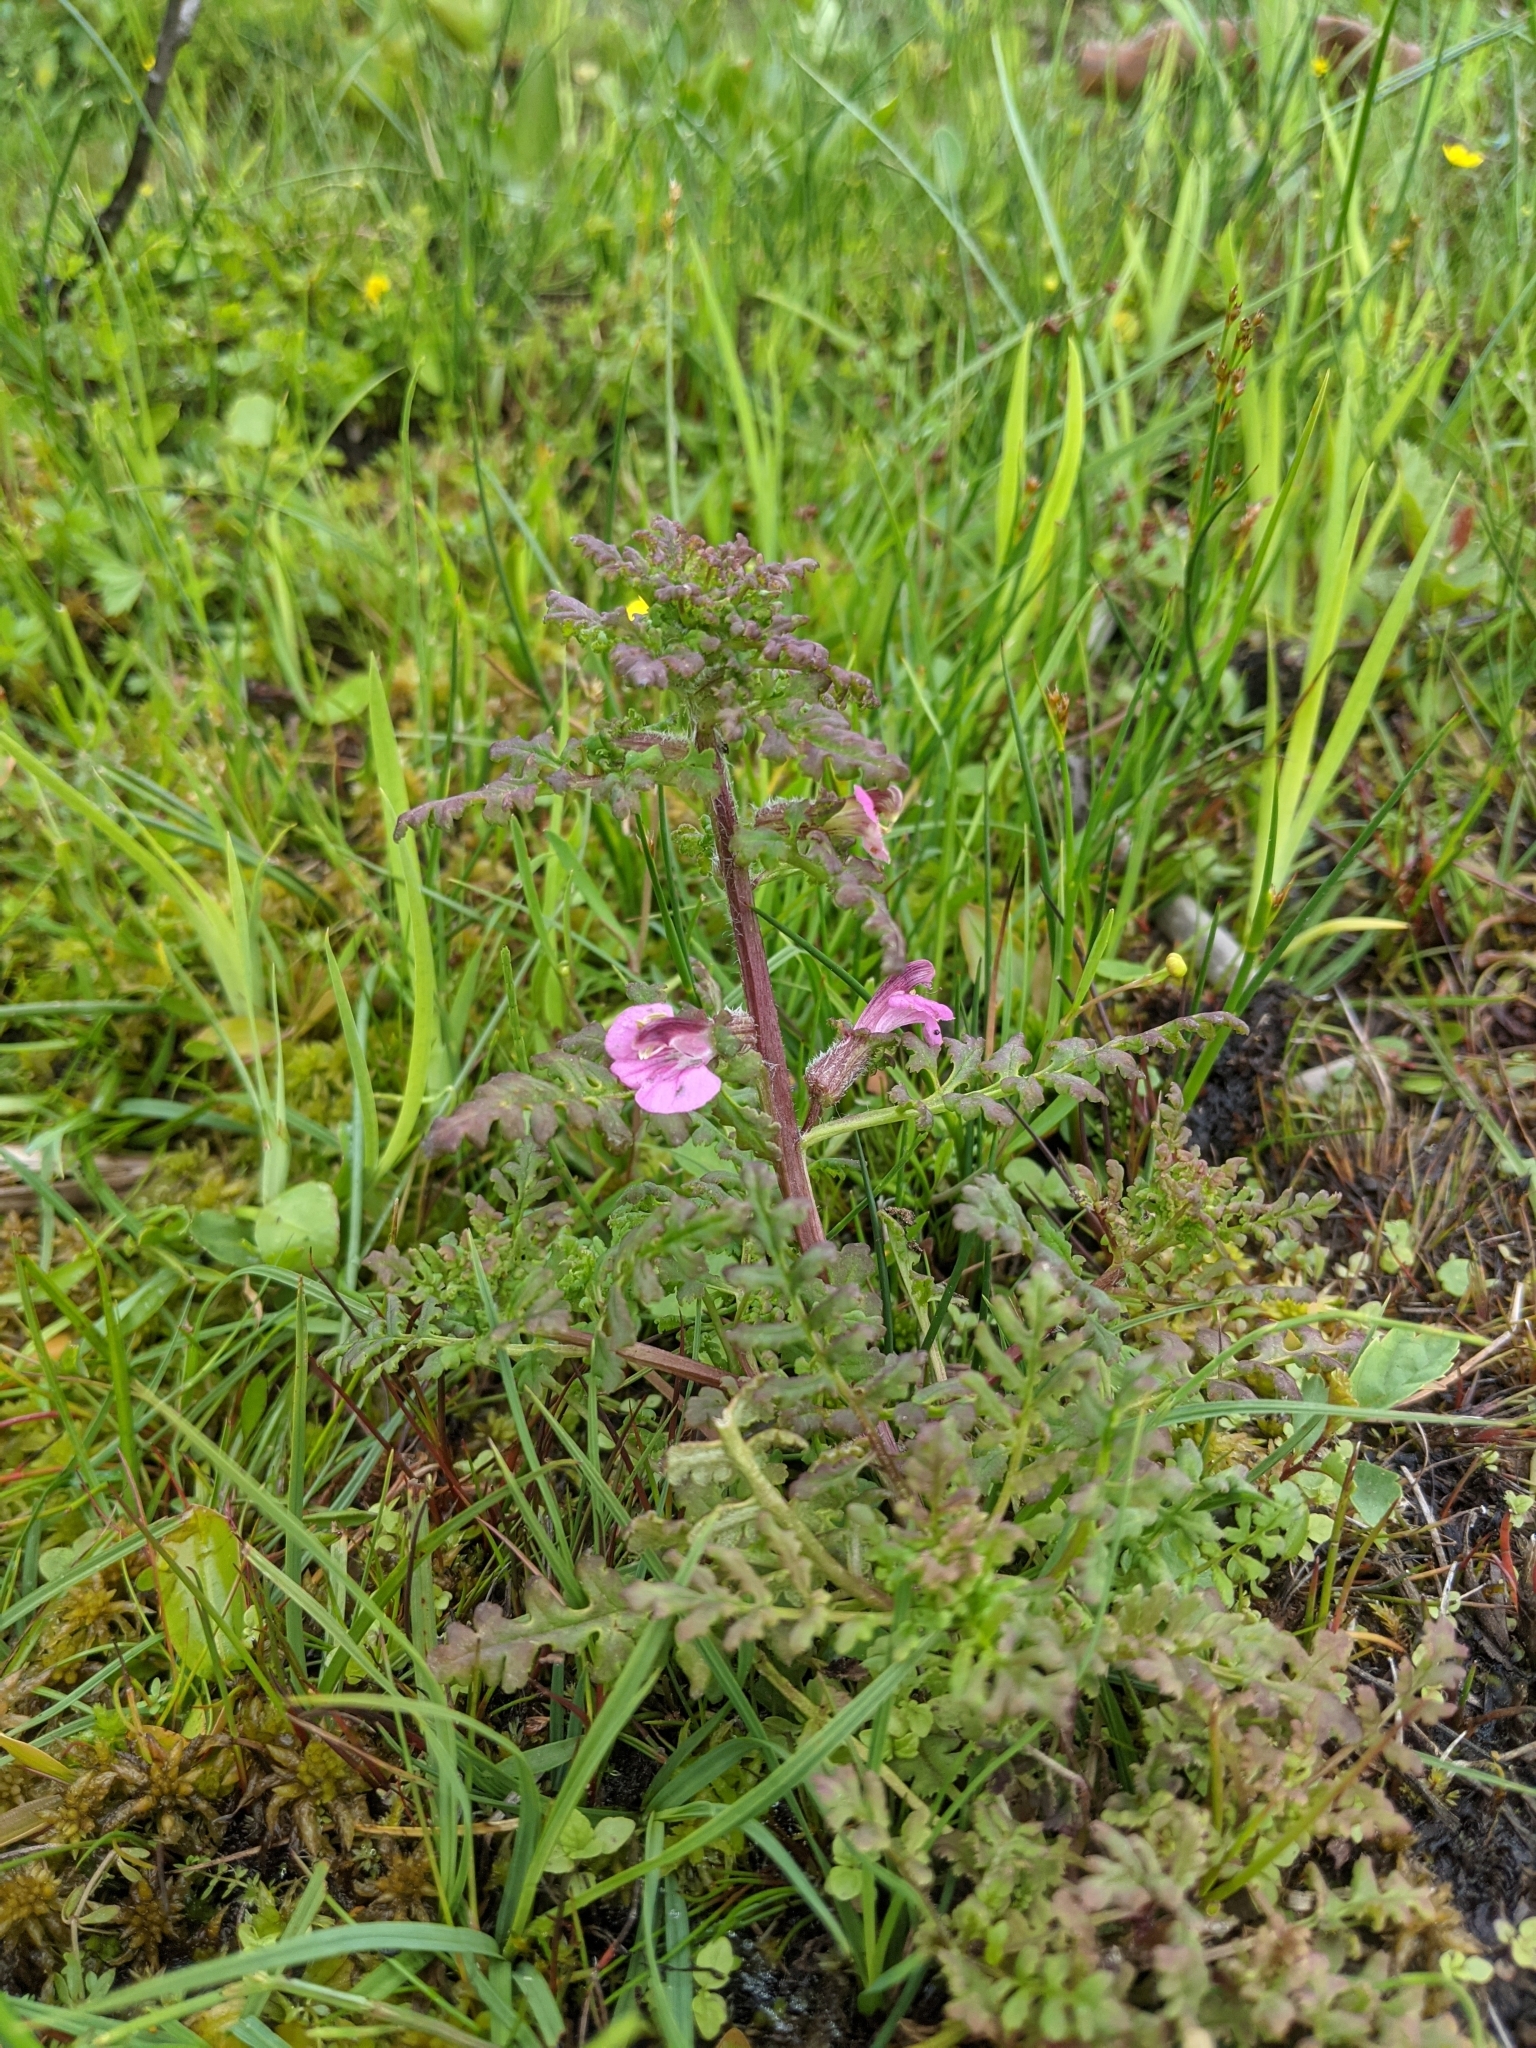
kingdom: Plantae
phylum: Tracheophyta
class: Magnoliopsida
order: Lamiales
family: Orobanchaceae
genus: Pedicularis
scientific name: Pedicularis palustris
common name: Marsh lousewort
